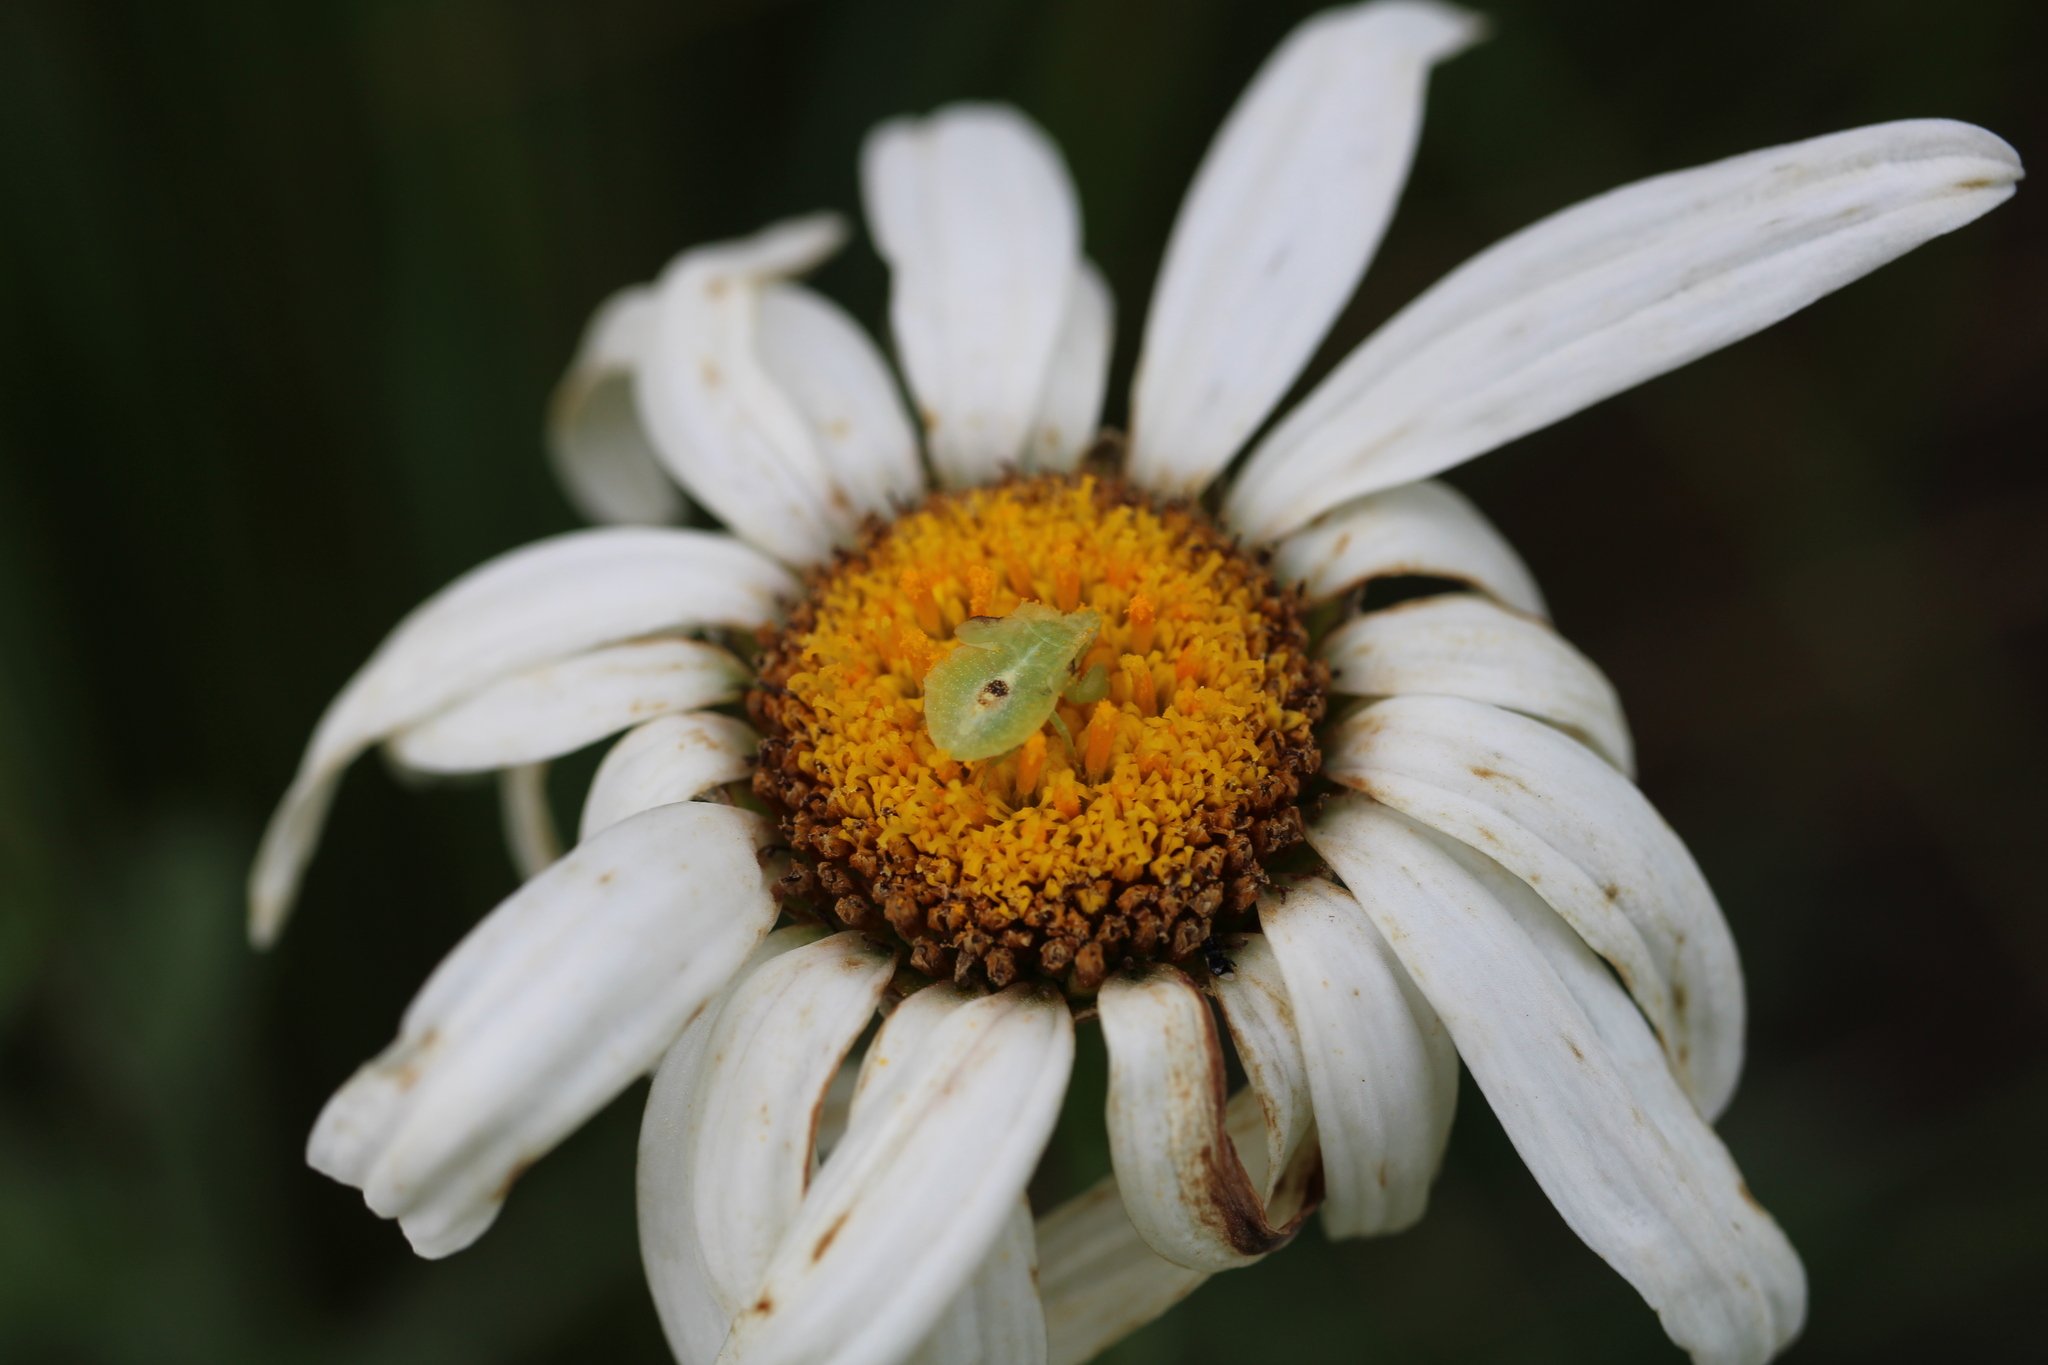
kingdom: Animalia
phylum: Arthropoda
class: Insecta
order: Hemiptera
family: Reduviidae
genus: Phymata
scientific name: Phymata americana
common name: Jagged ambush bug
